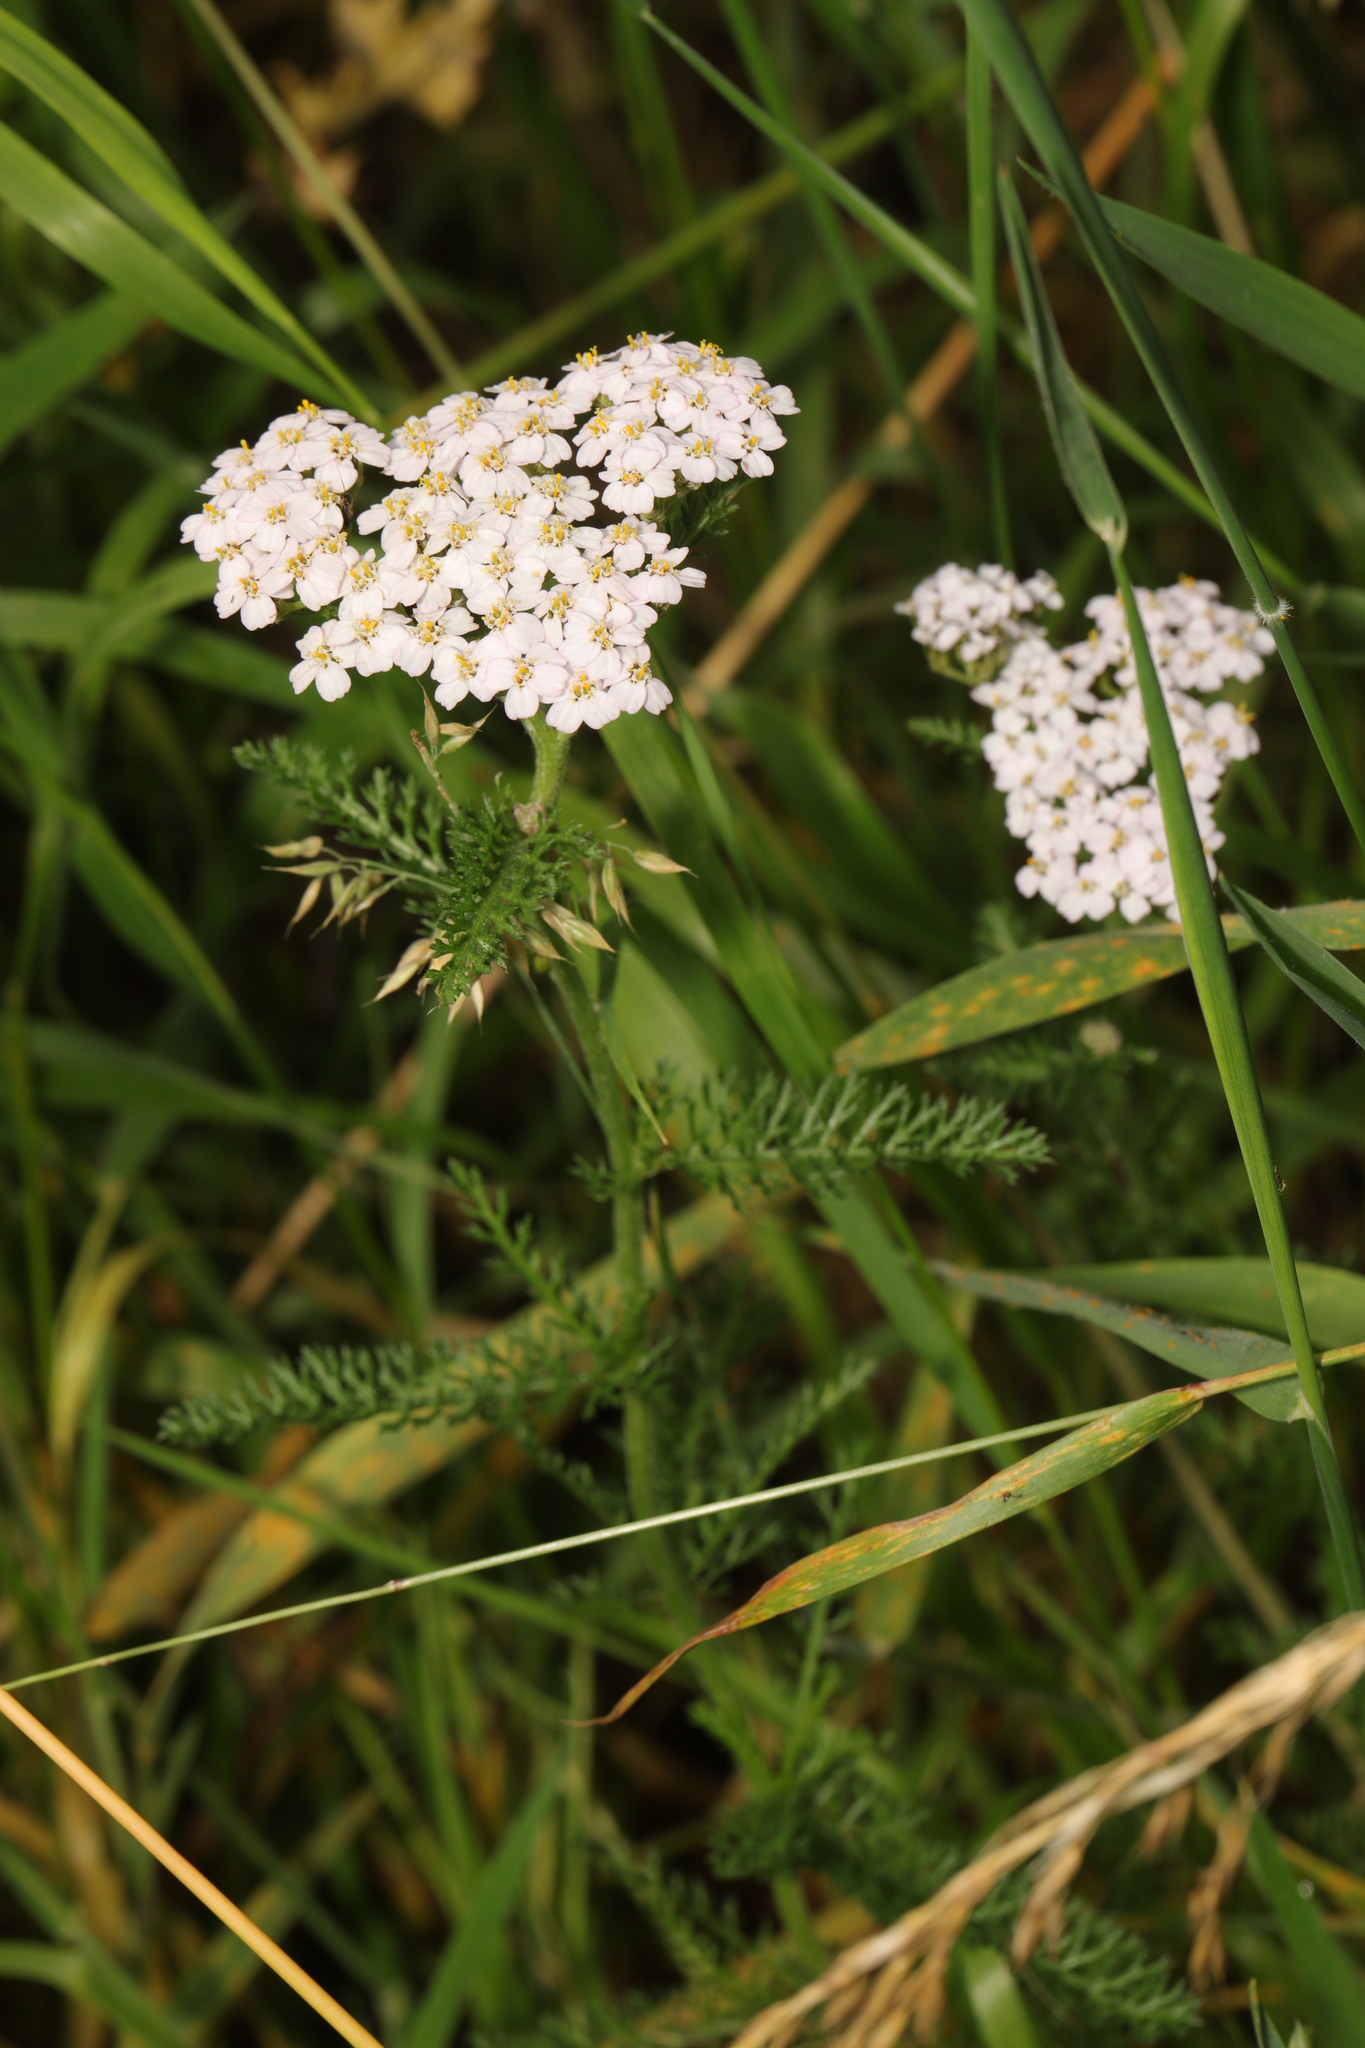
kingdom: Plantae
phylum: Tracheophyta
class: Magnoliopsida
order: Asterales
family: Asteraceae
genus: Achillea
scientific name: Achillea millefolium
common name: Yarrow
